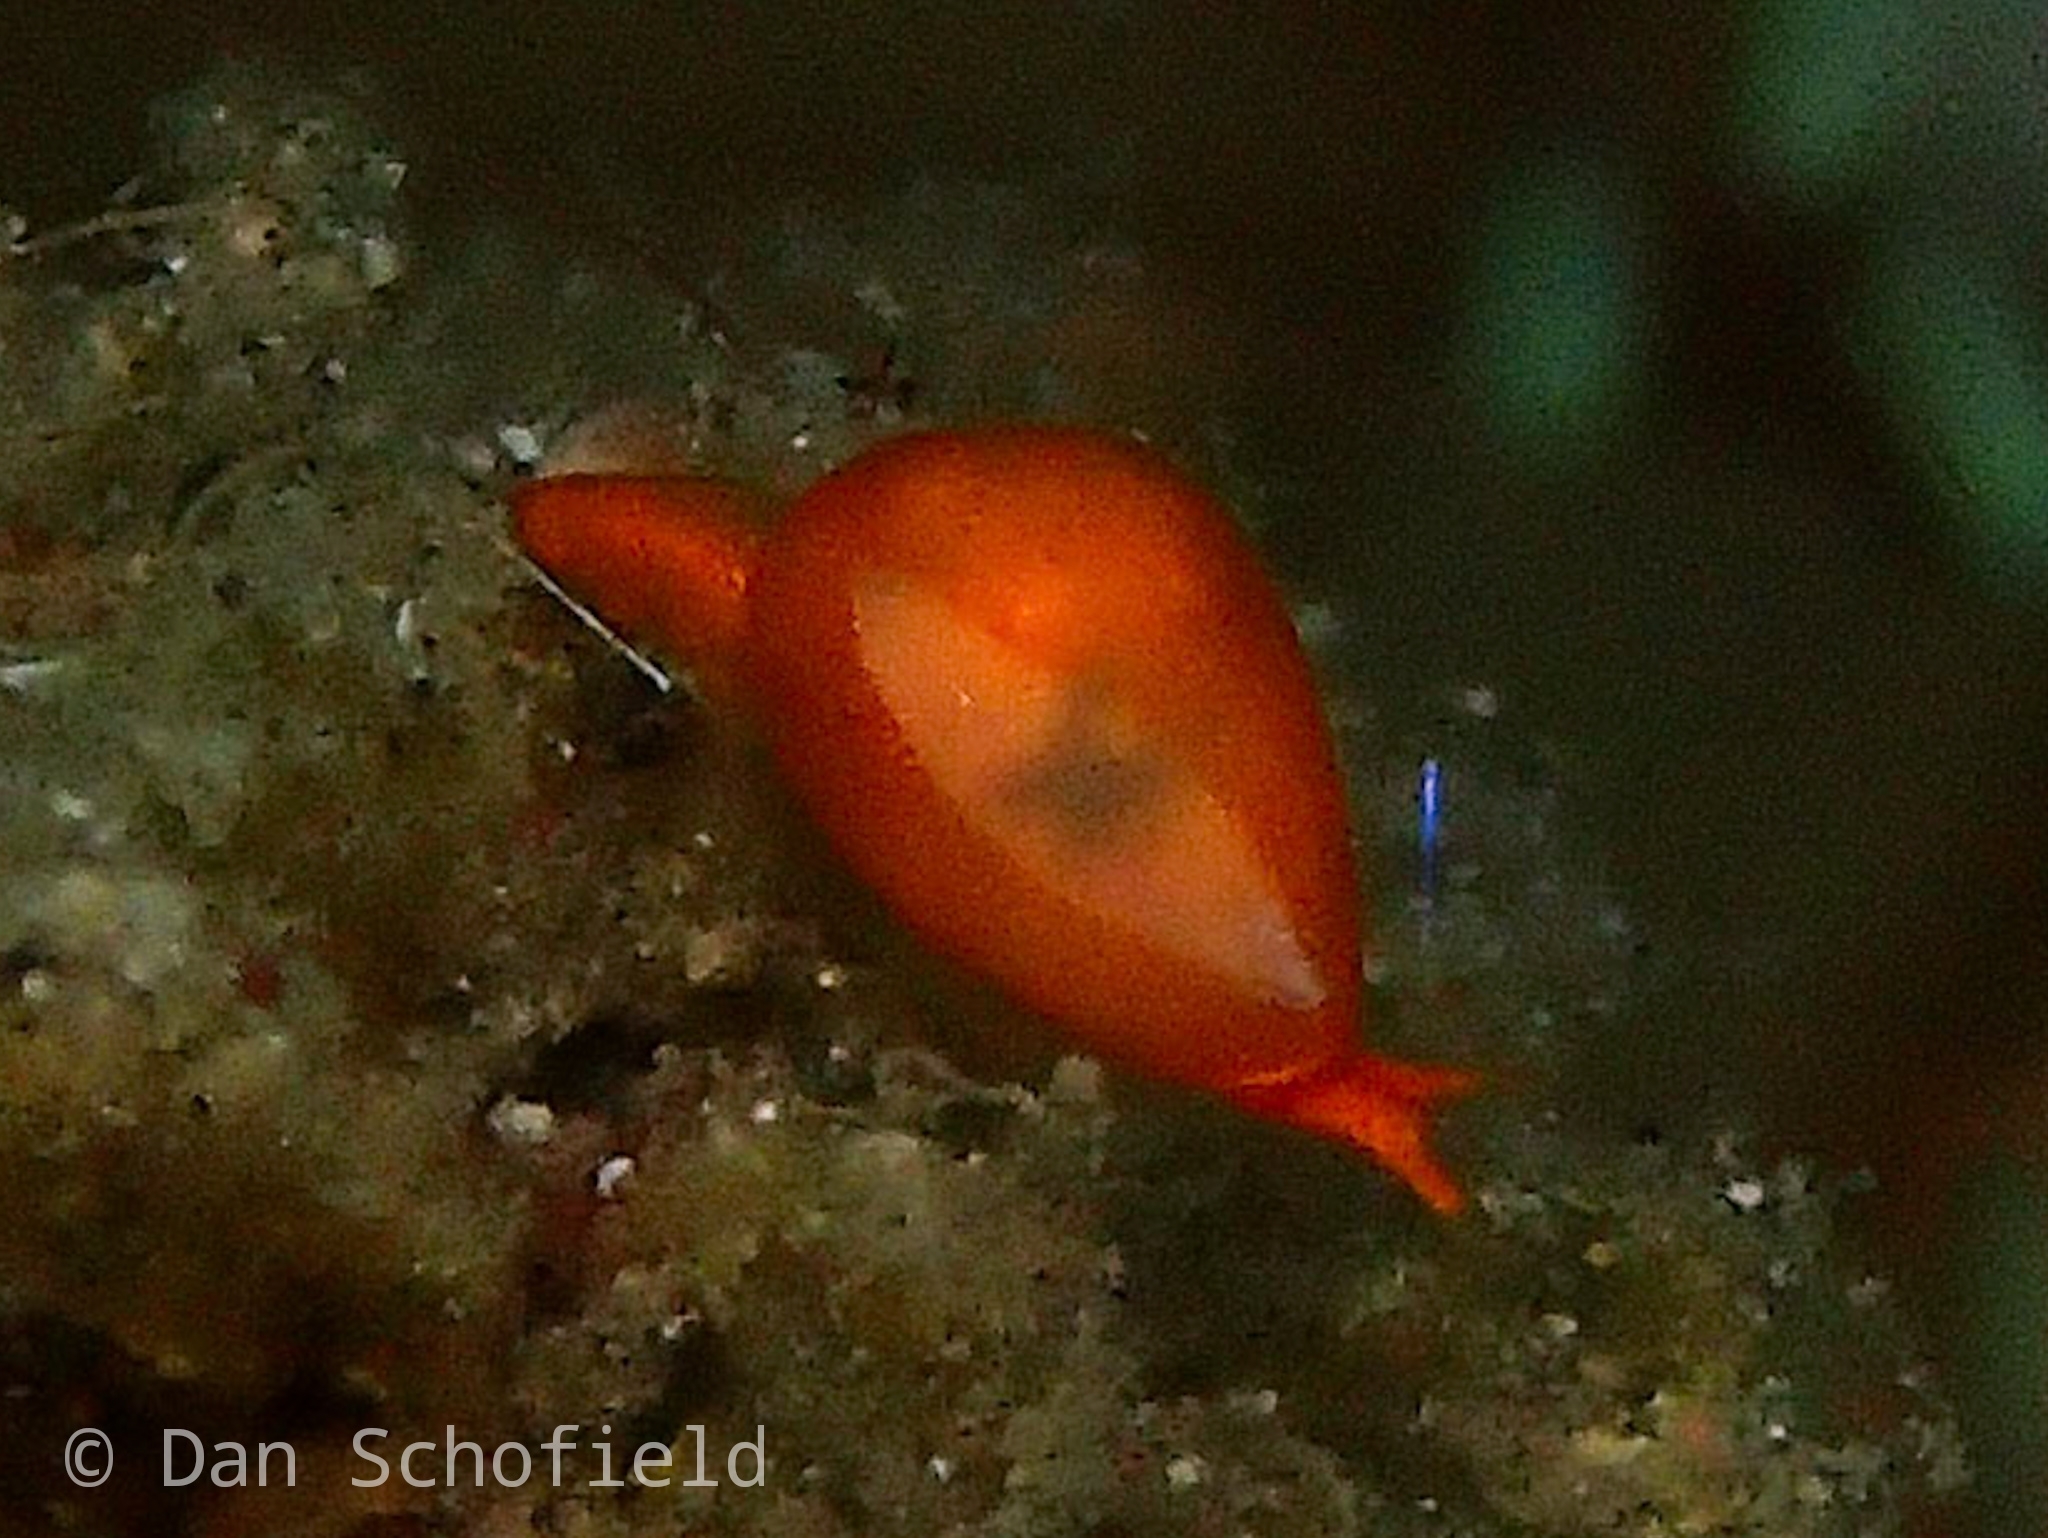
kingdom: Animalia
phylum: Mollusca
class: Gastropoda
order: Neogastropoda
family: Cystiscidae
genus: Cystiscus
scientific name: Cystiscus minutissimus
